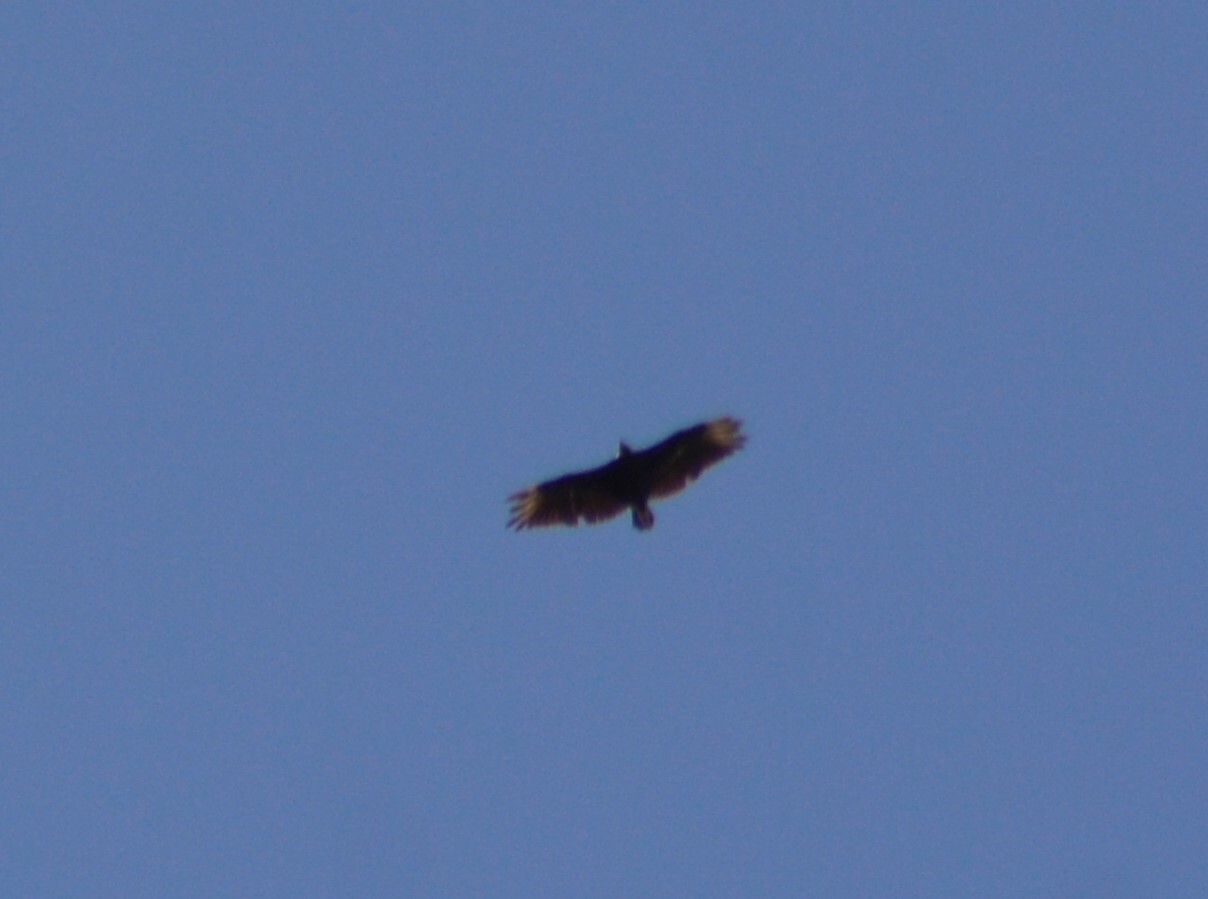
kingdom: Animalia
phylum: Chordata
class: Aves
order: Accipitriformes
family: Cathartidae
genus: Coragyps
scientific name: Coragyps atratus
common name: Black vulture
